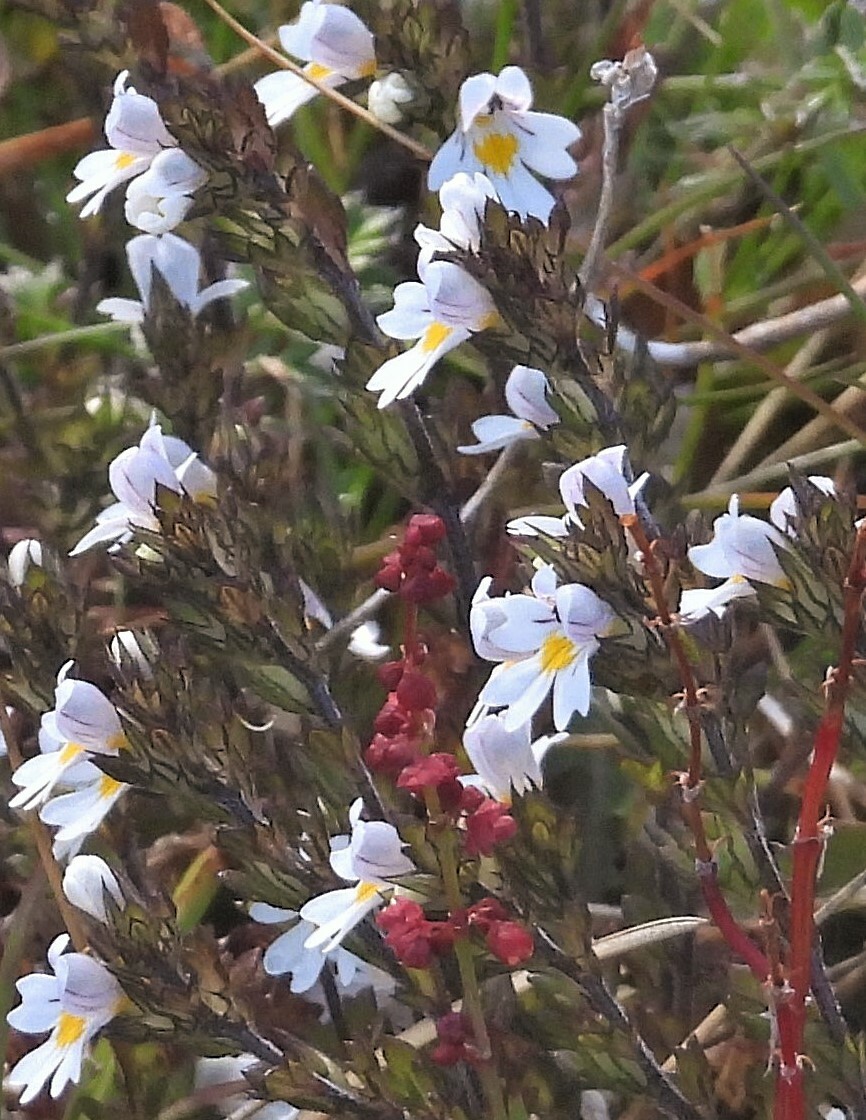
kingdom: Plantae
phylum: Tracheophyta
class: Magnoliopsida
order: Lamiales
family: Orobanchaceae
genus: Euphrasia
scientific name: Euphrasia officinalis
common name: Eyebright
